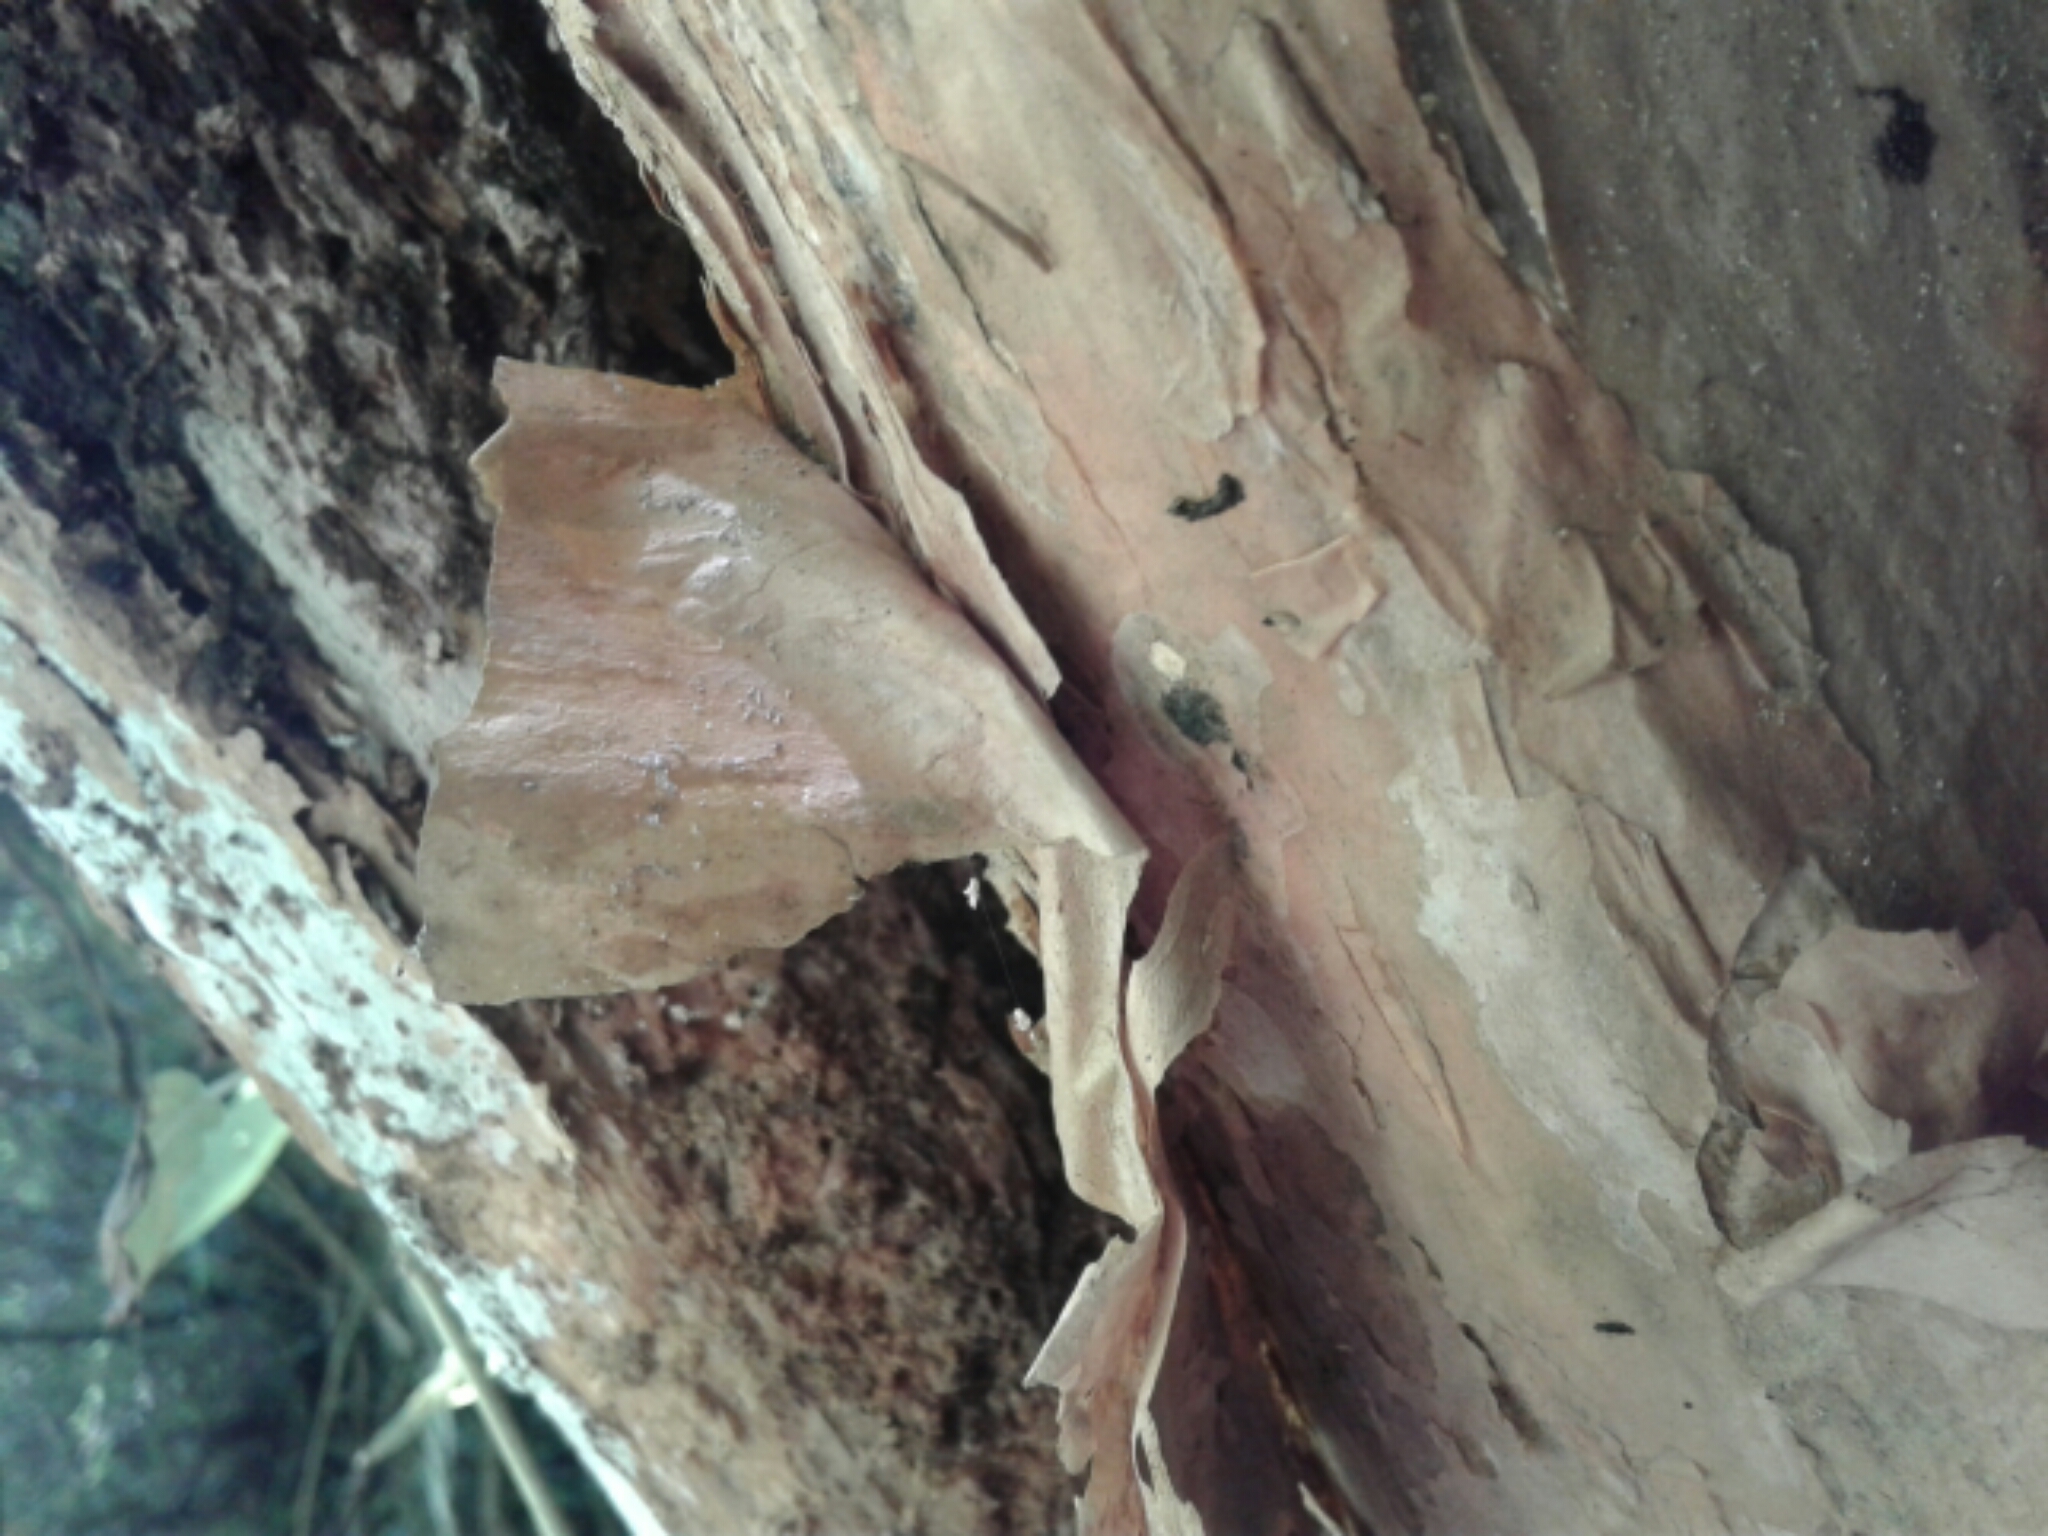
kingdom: Plantae
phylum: Tracheophyta
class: Magnoliopsida
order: Myrtales
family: Onagraceae
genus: Fuchsia
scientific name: Fuchsia excorticata
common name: Tree fuchsia
